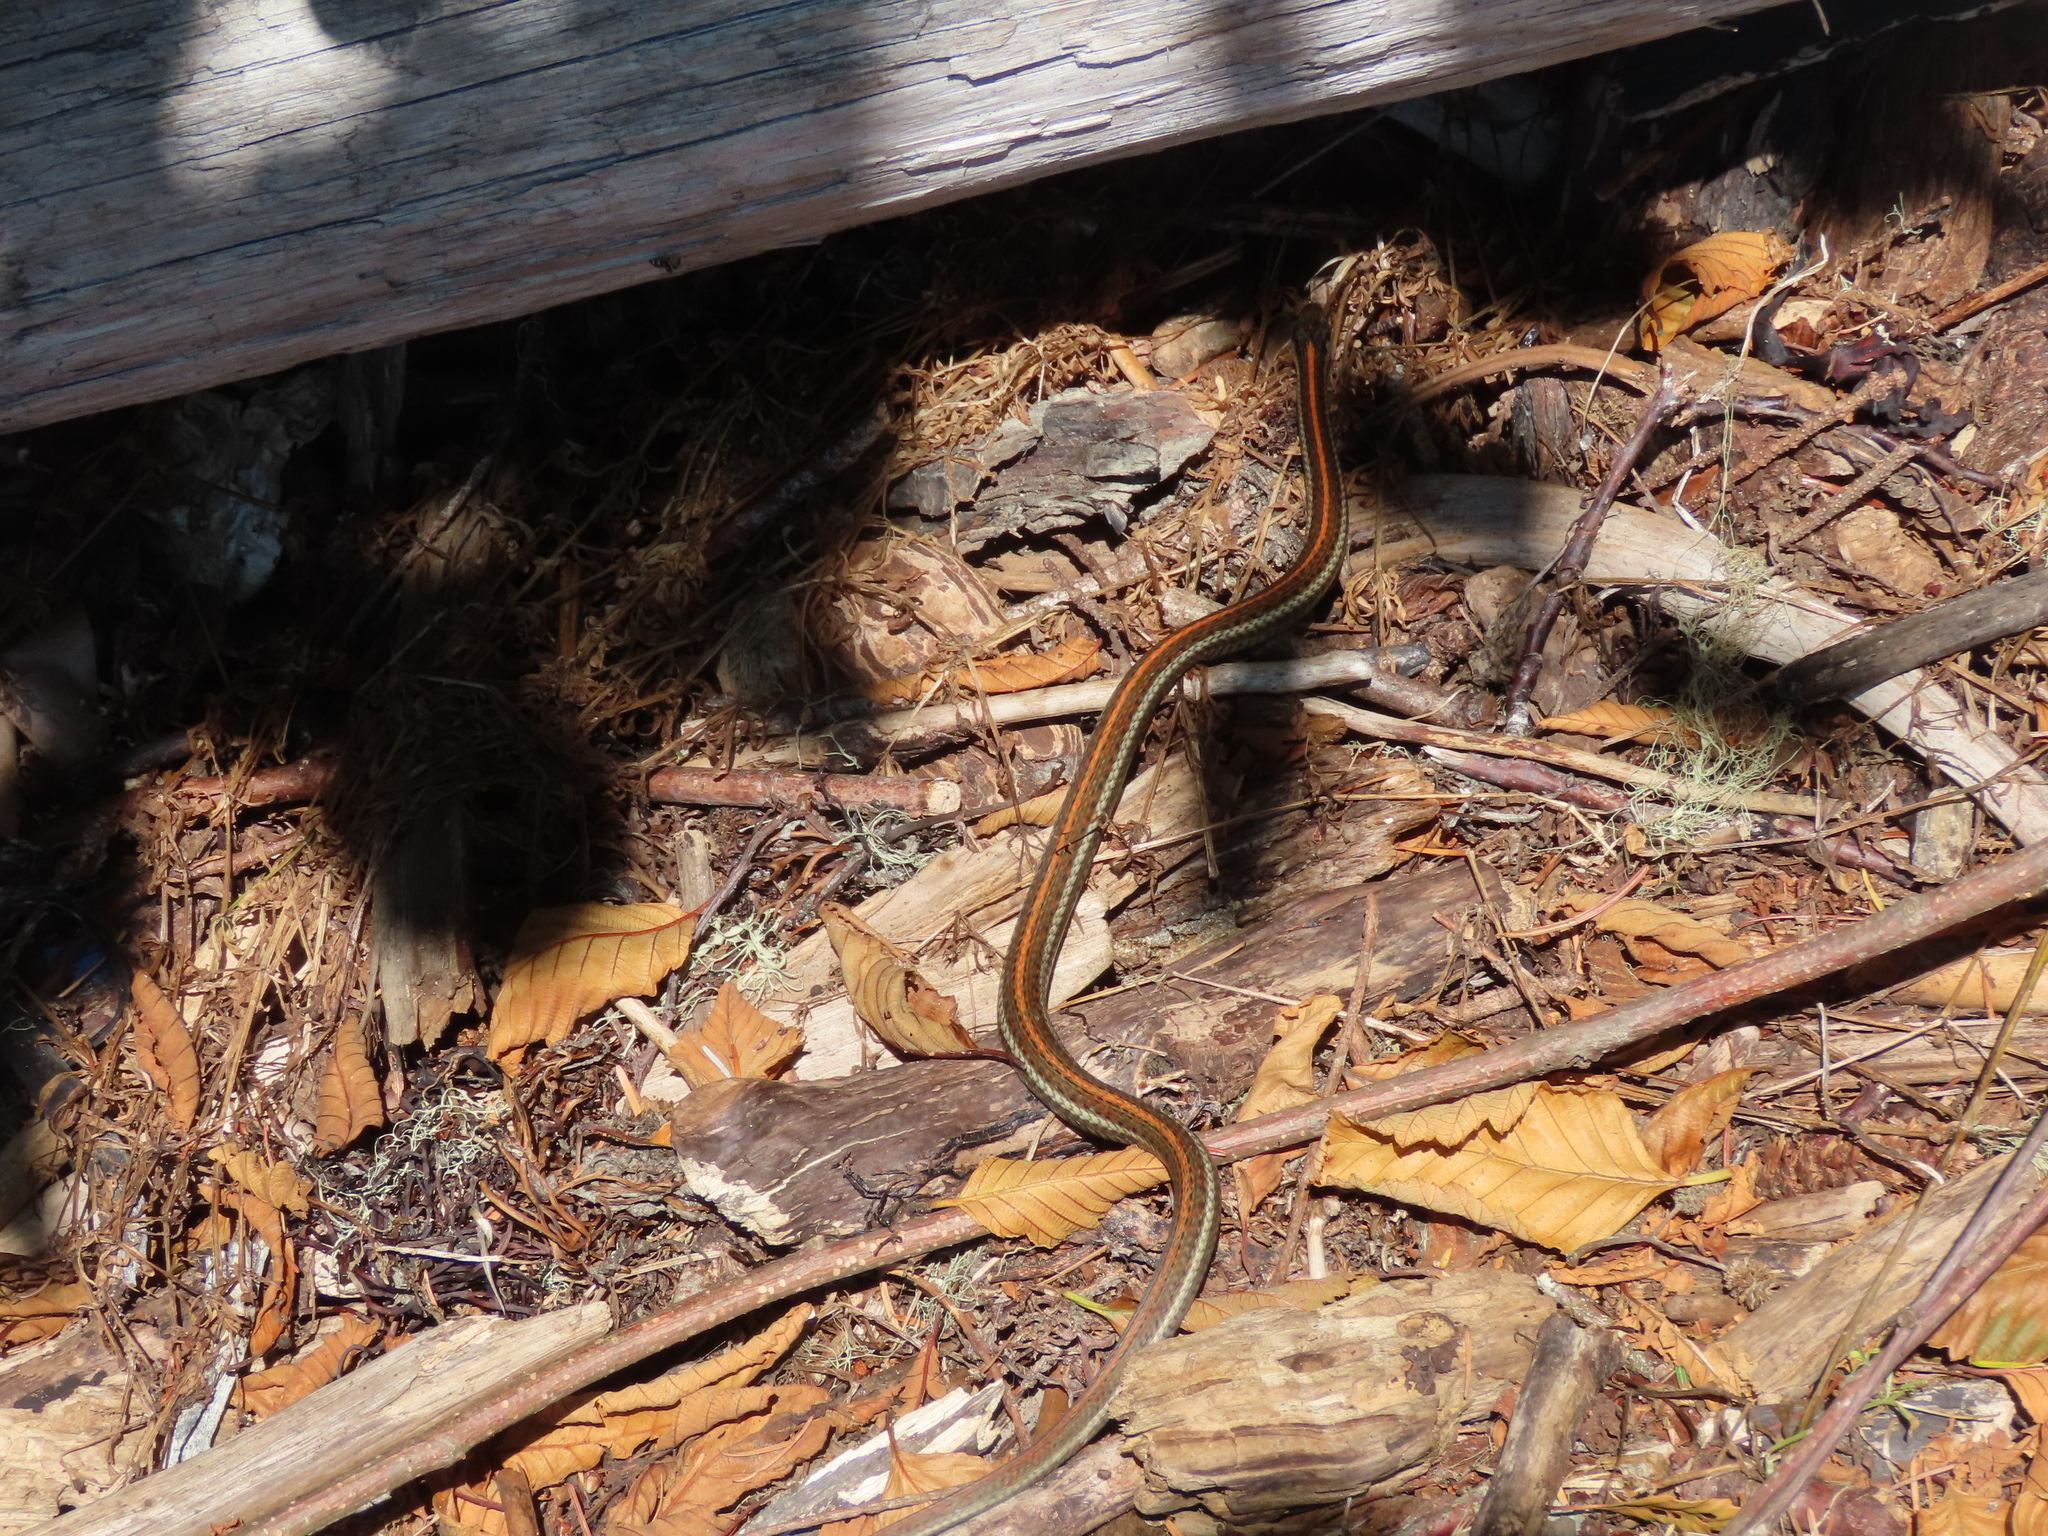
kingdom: Animalia
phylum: Chordata
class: Squamata
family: Colubridae
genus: Thamnophis
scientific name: Thamnophis ordinoides
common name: Northwestern garter snake
